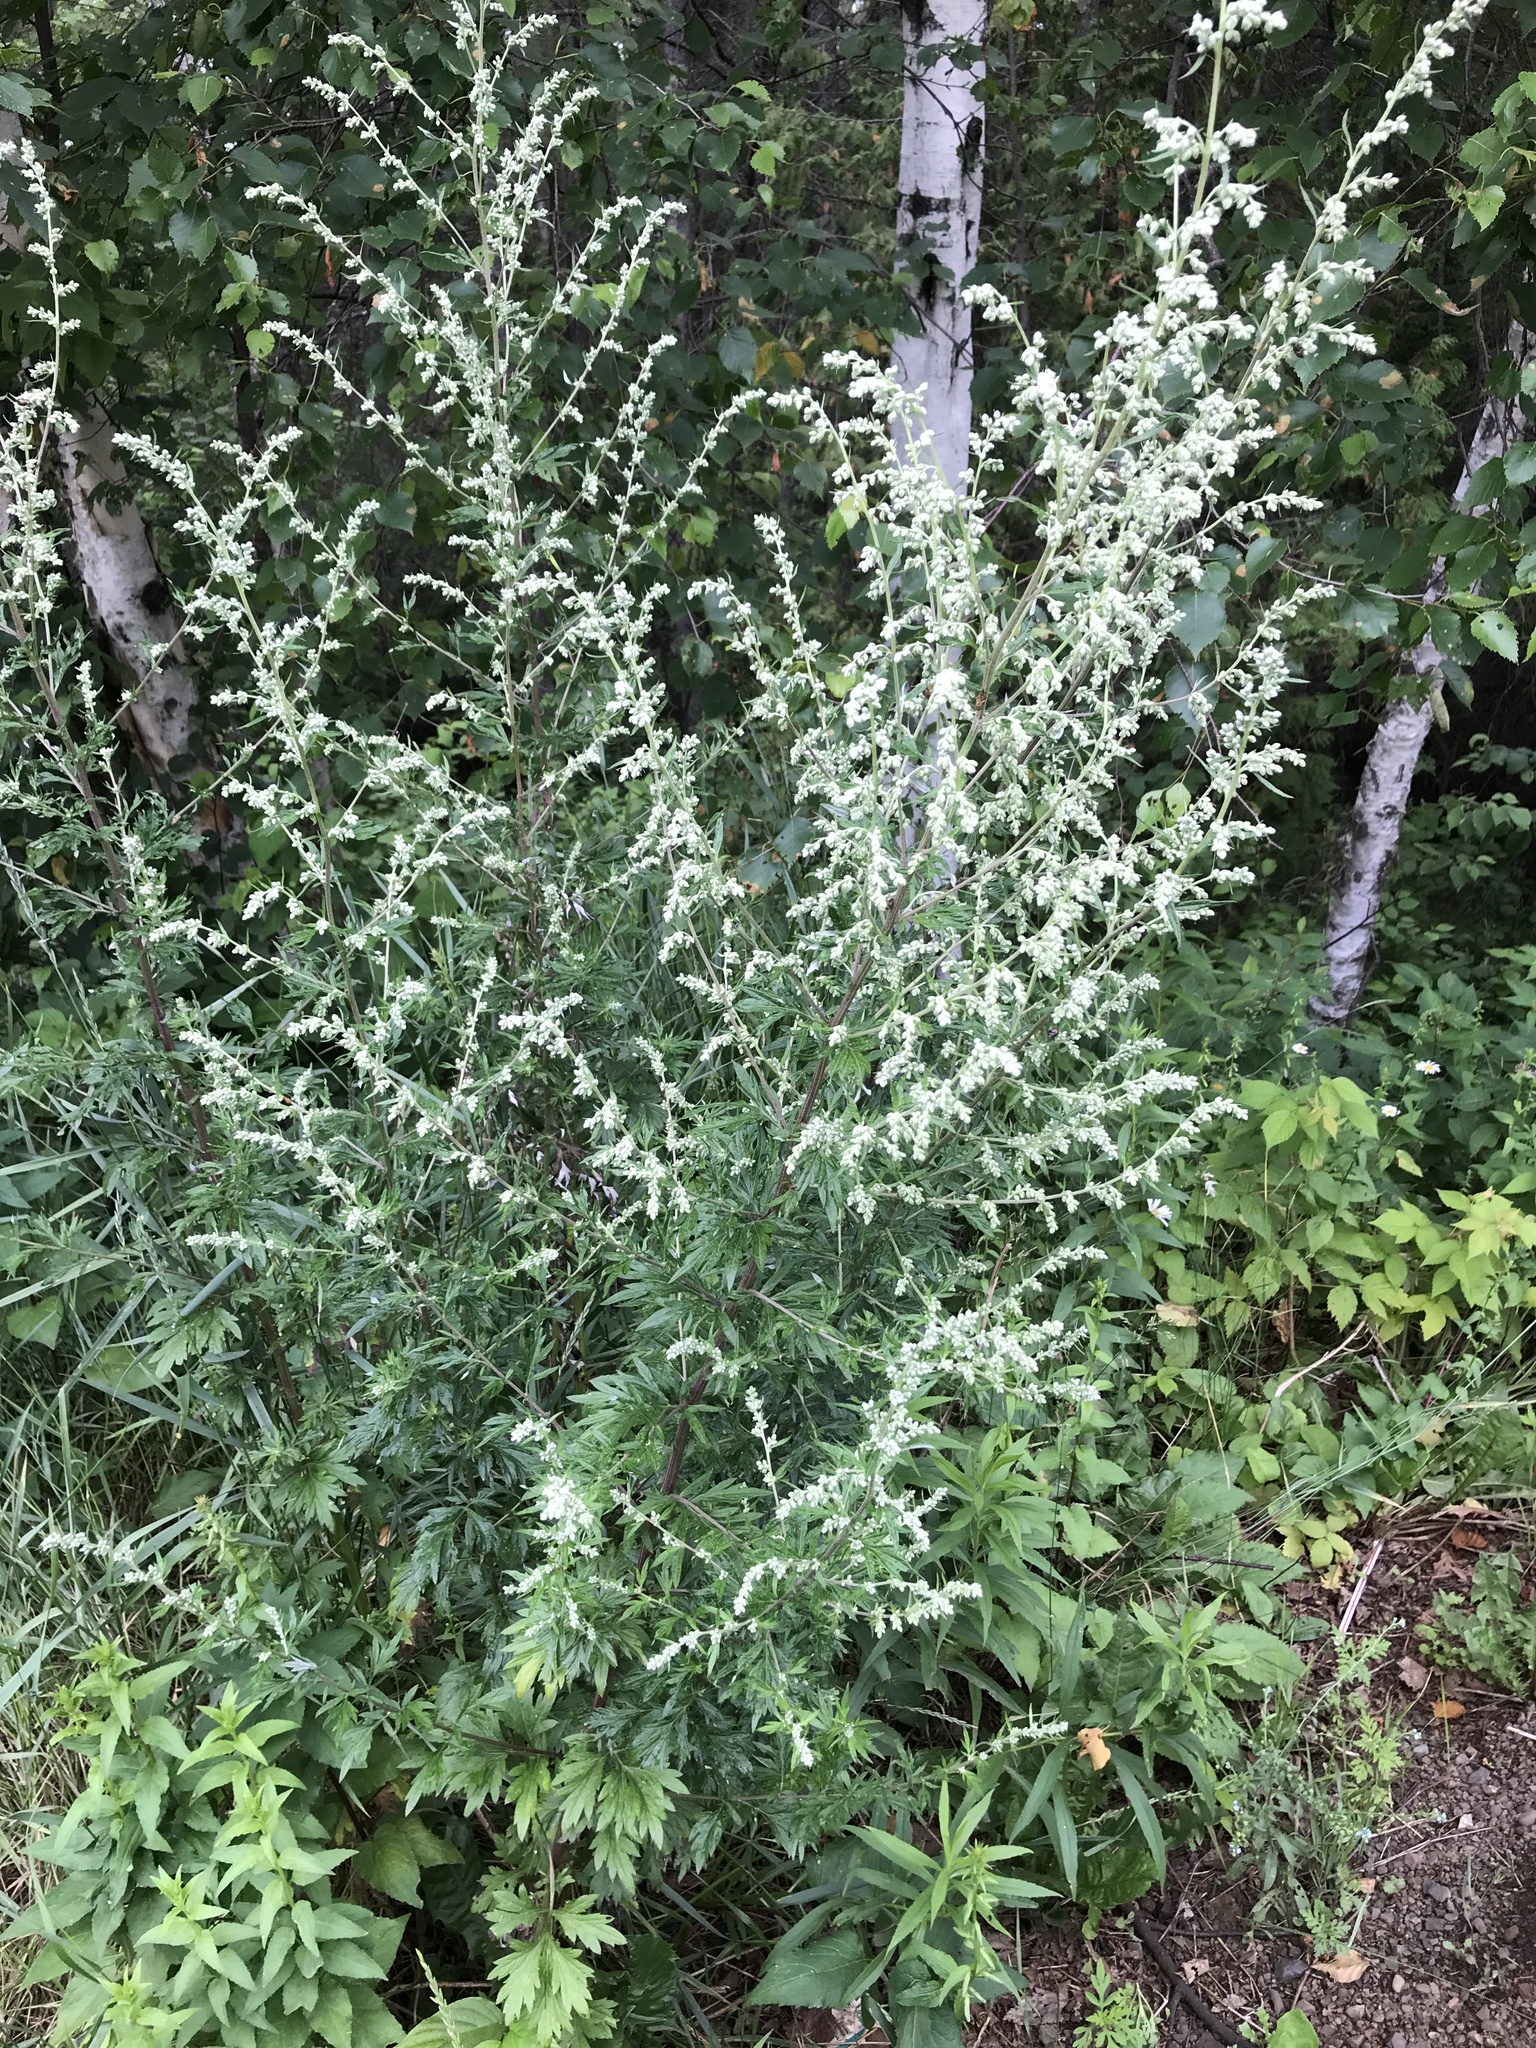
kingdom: Plantae
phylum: Tracheophyta
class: Magnoliopsida
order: Asterales
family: Asteraceae
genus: Artemisia
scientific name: Artemisia vulgaris
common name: Mugwort
